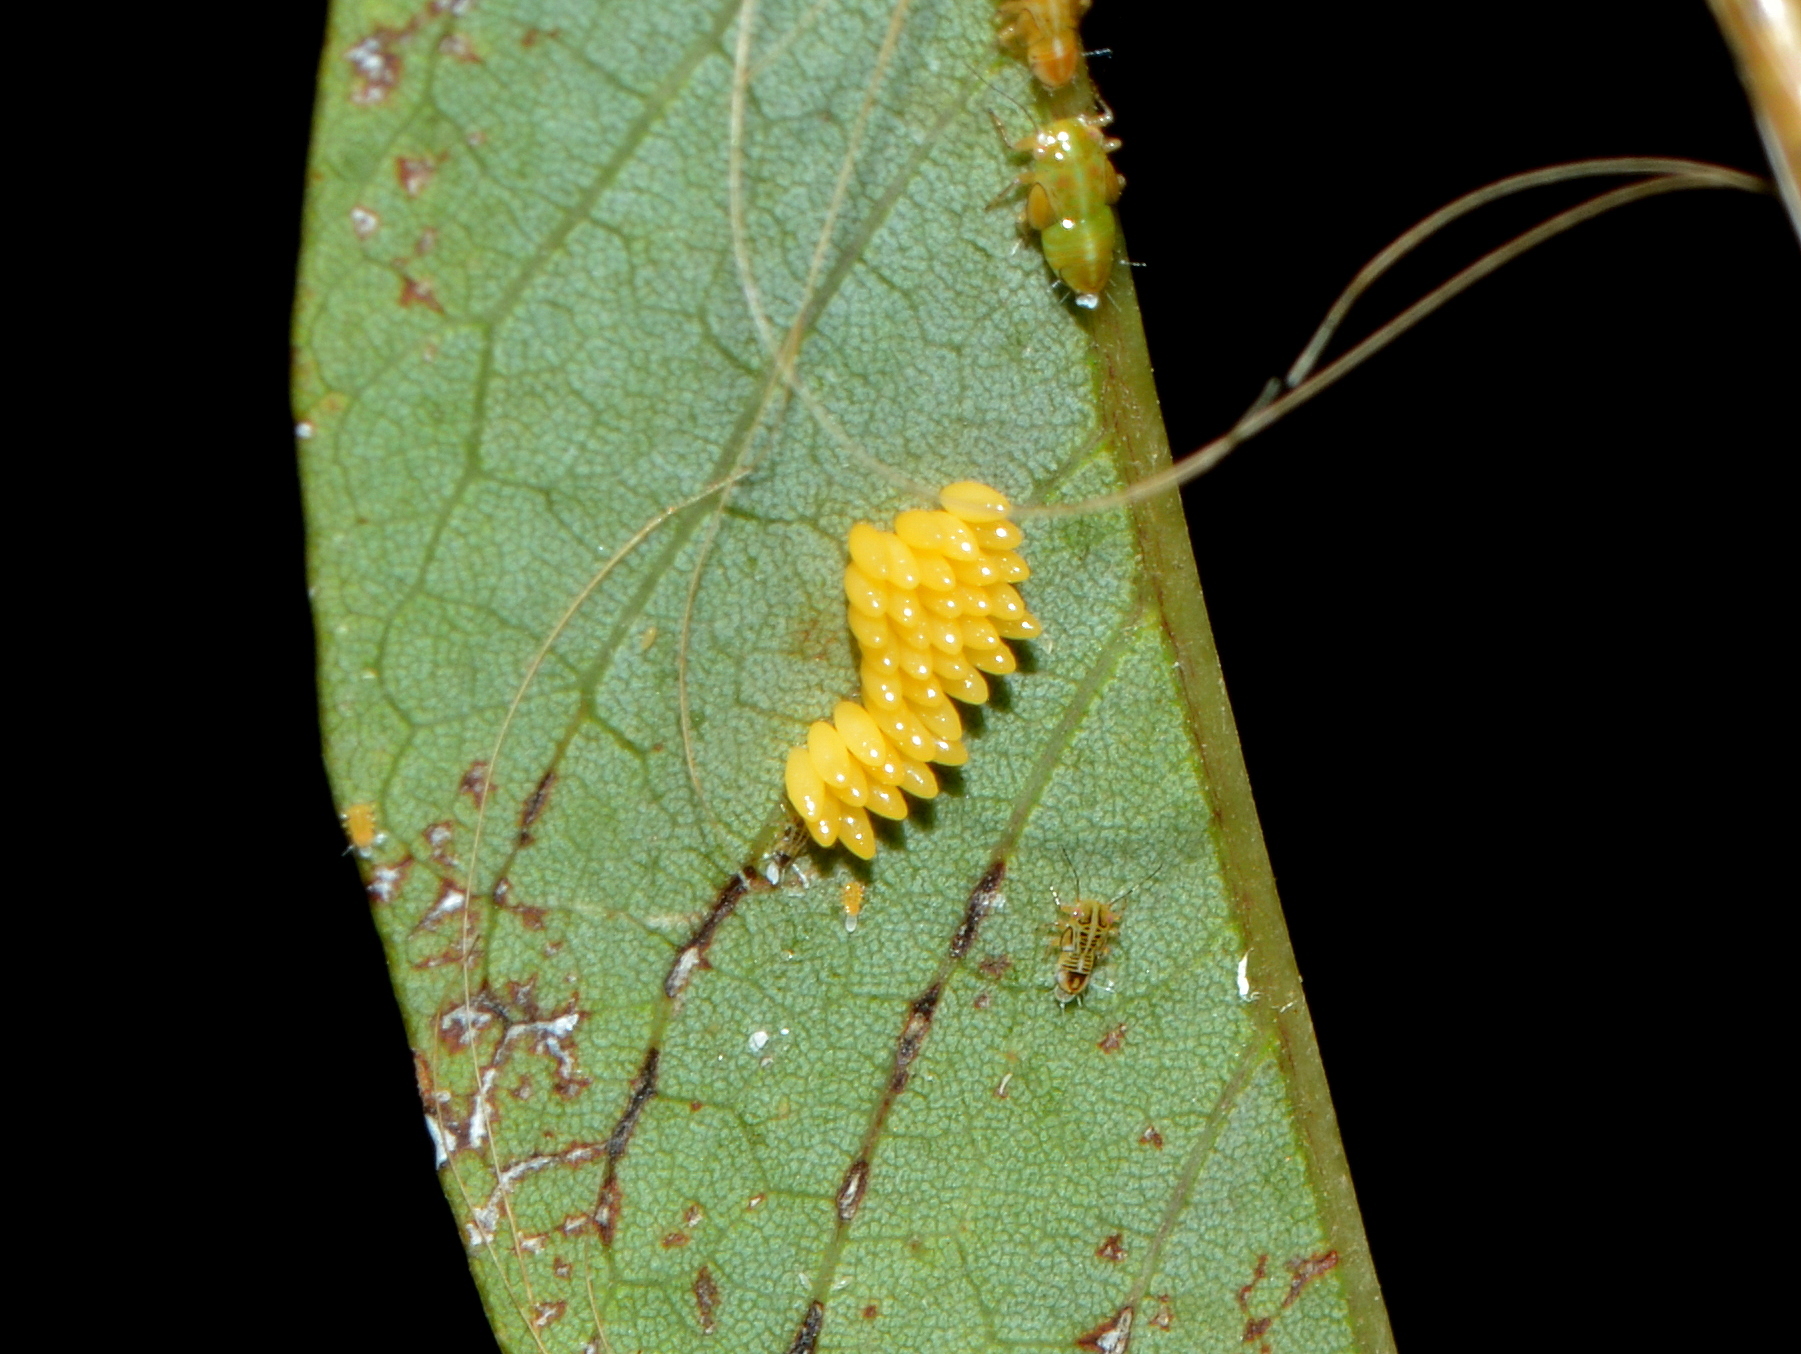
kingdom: Animalia
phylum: Arthropoda
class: Insecta
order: Coleoptera
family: Coccinellidae
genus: Harmonia
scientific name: Harmonia axyridis
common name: Harlequin ladybird
